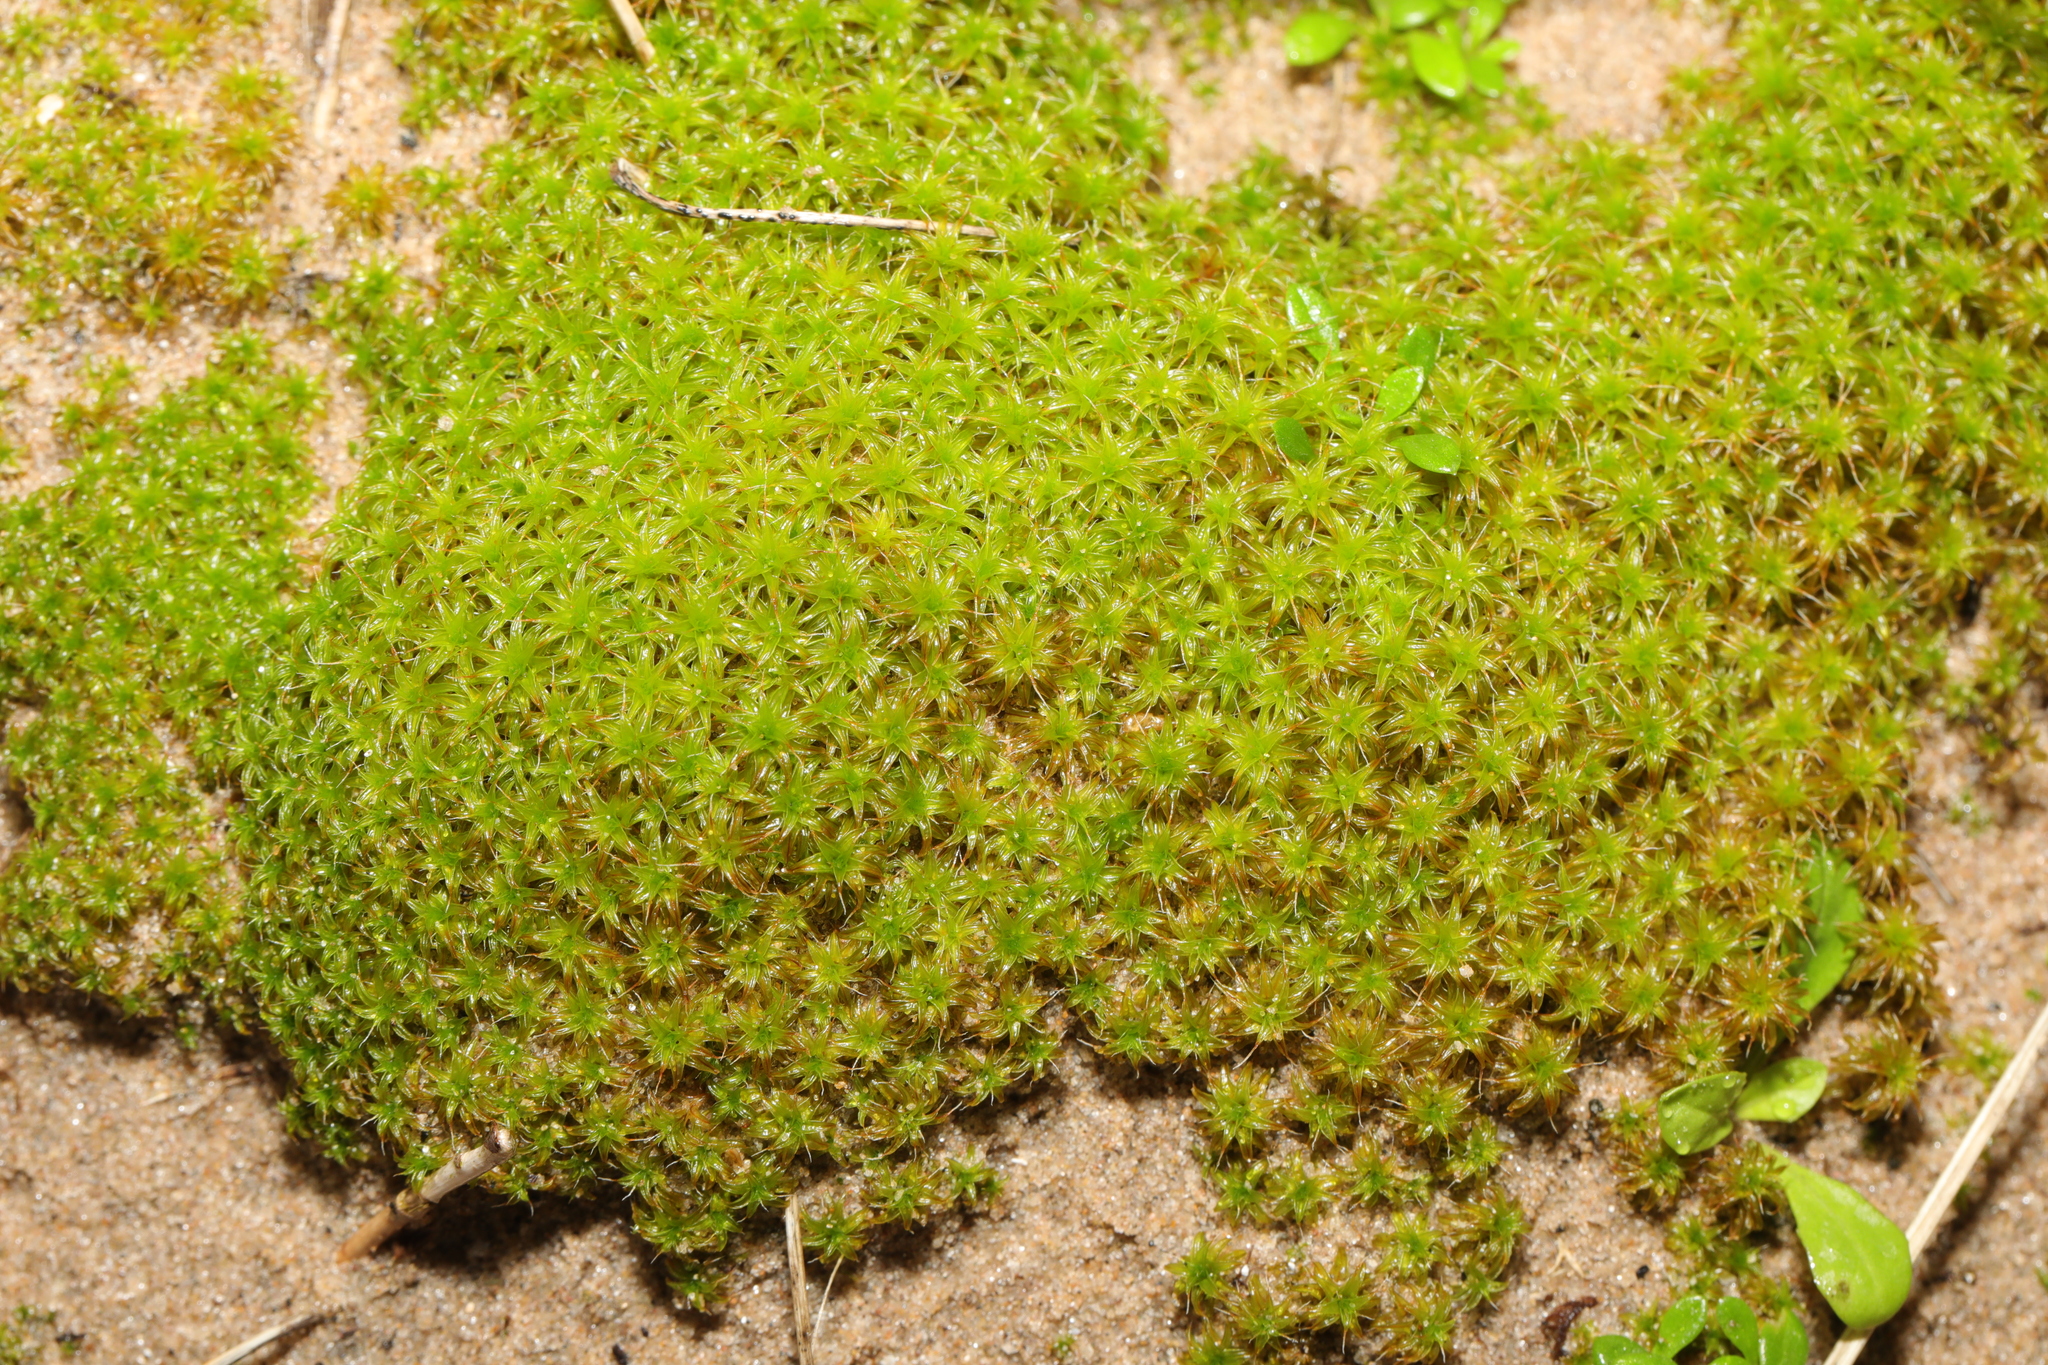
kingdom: Plantae
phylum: Bryophyta
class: Bryopsida
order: Pottiales
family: Pottiaceae
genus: Syntrichia
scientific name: Syntrichia ruralis
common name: Sidewalk screw moss
